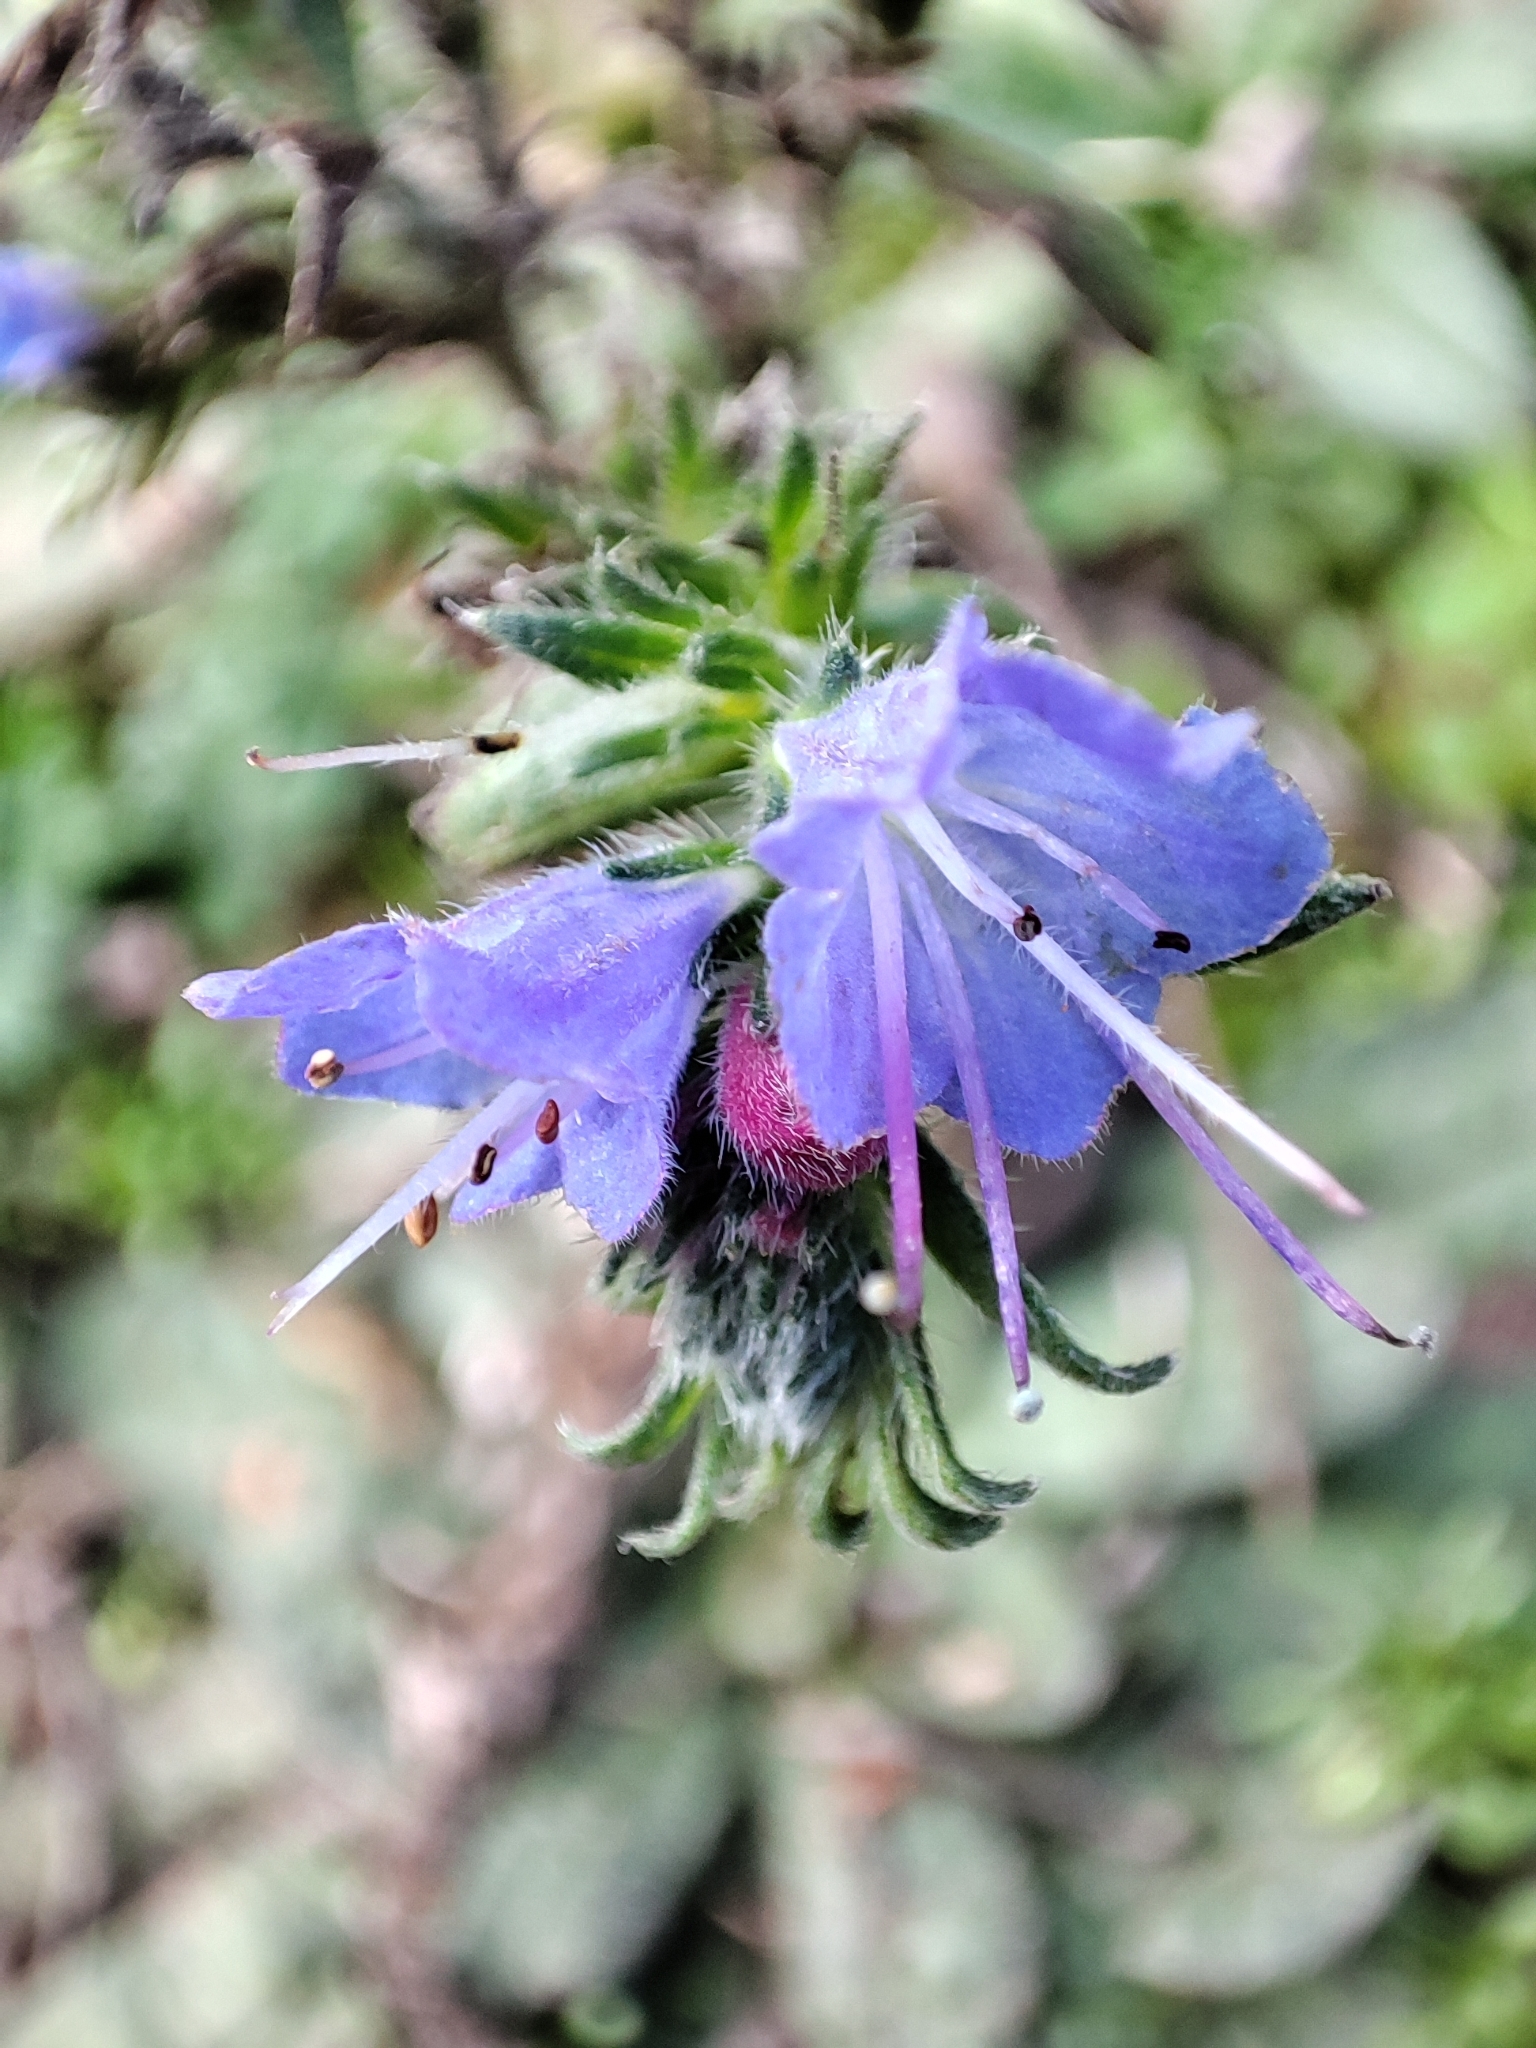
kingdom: Plantae
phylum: Tracheophyta
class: Magnoliopsida
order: Boraginales
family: Boraginaceae
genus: Echium
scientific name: Echium vulgare
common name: Common viper's bugloss
